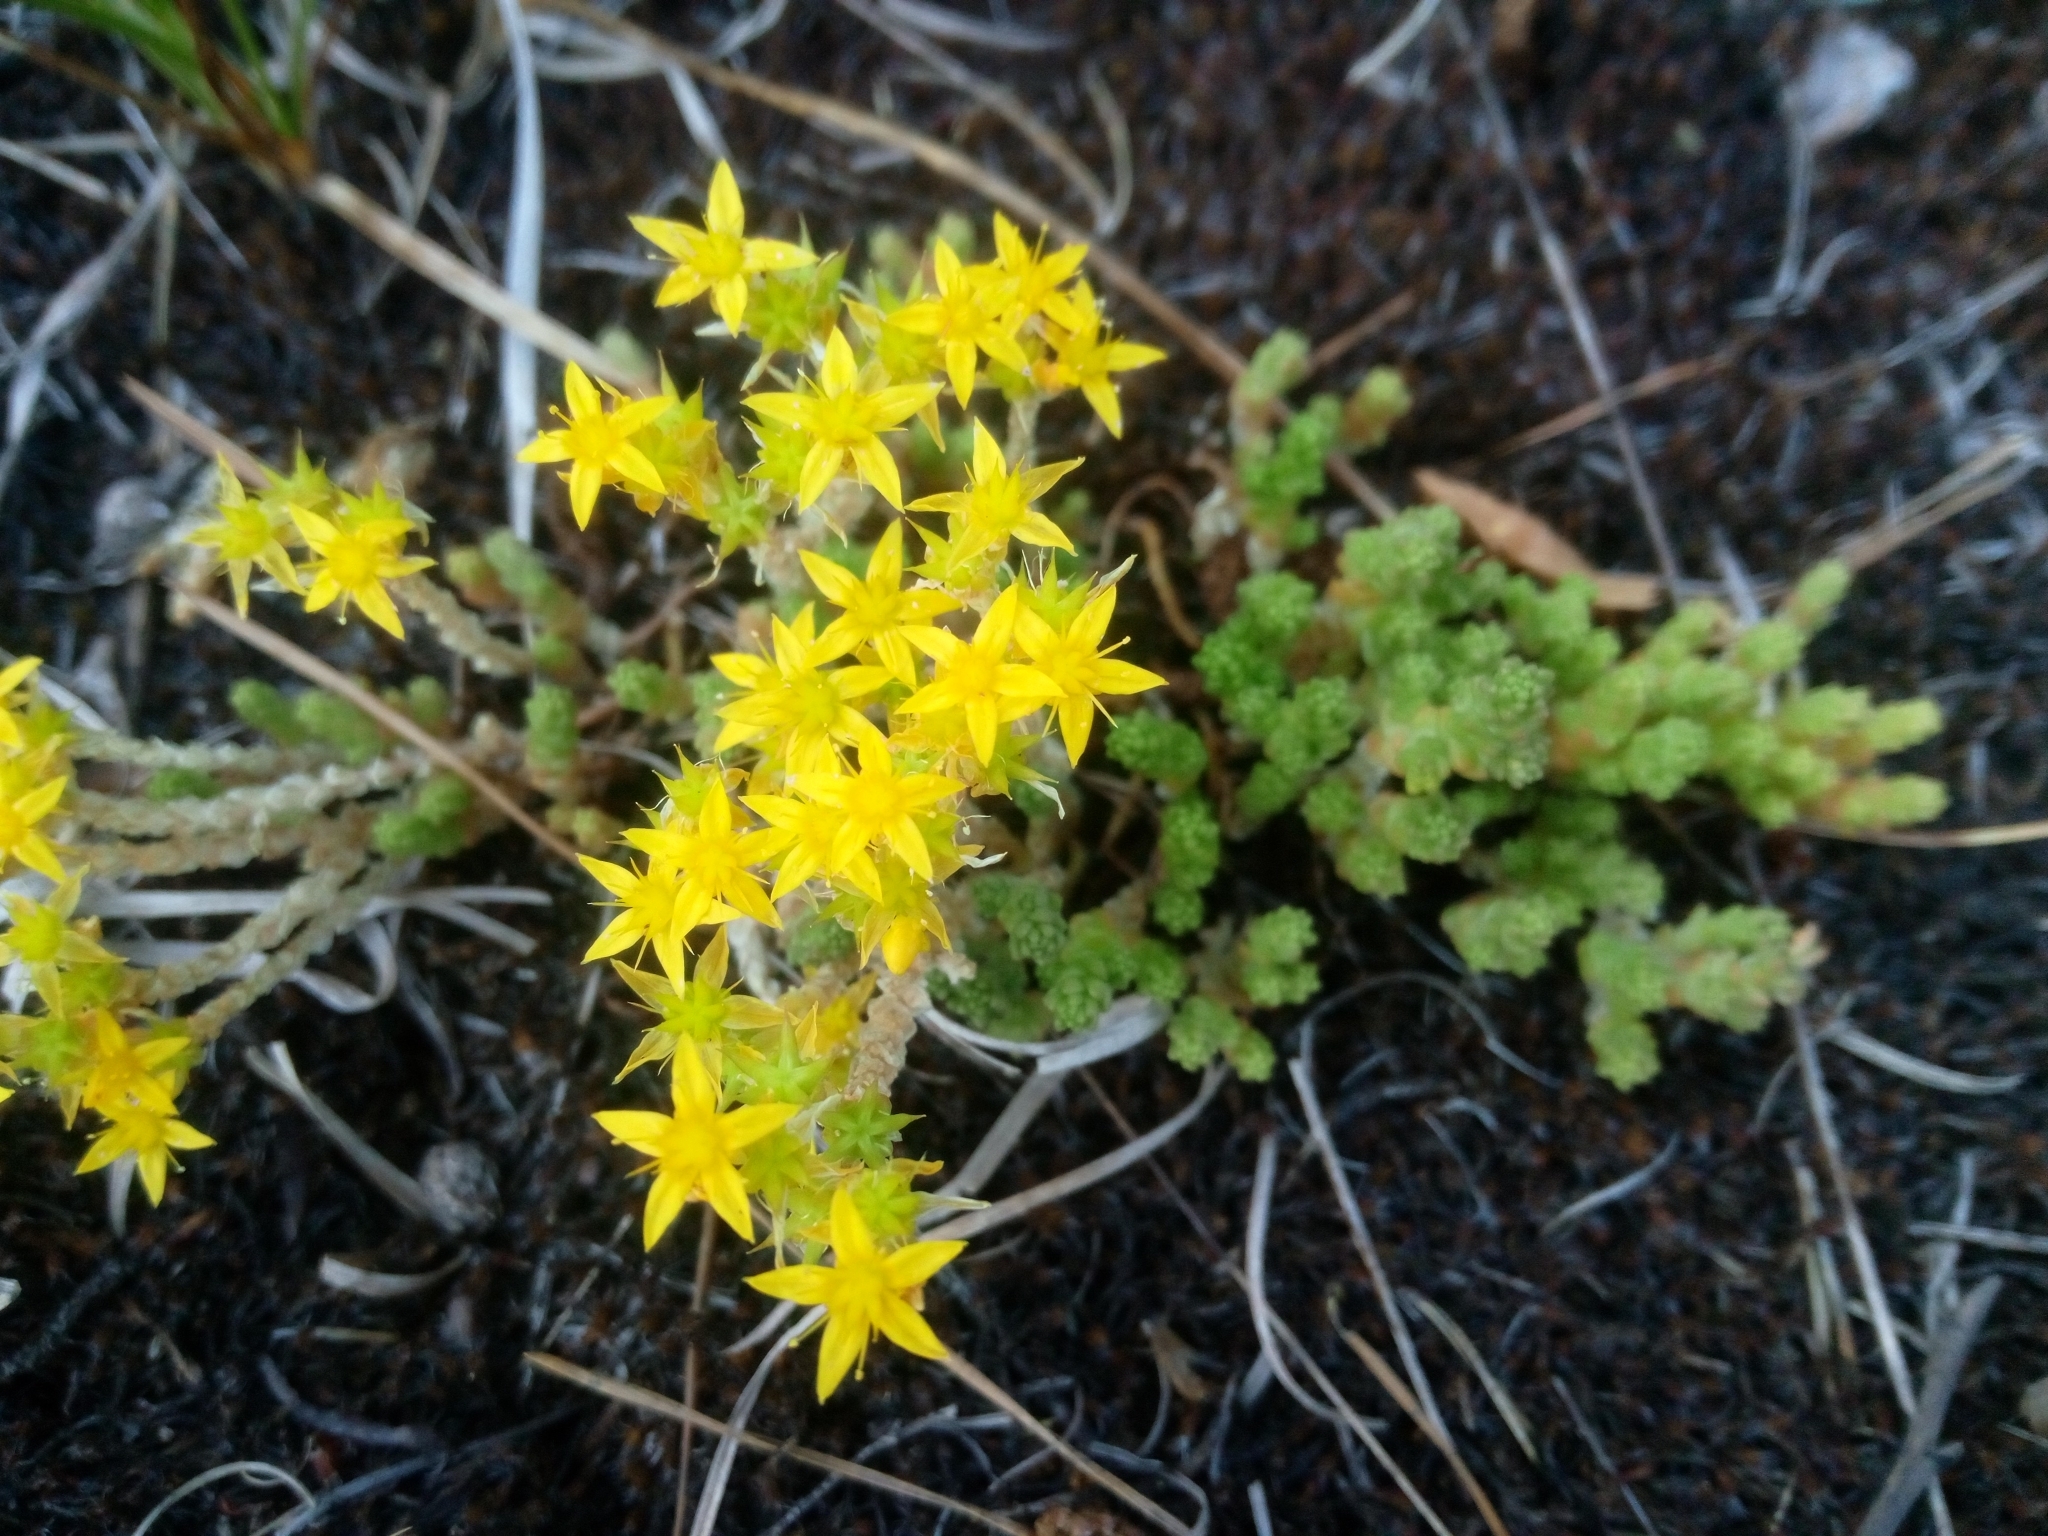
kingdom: Plantae
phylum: Tracheophyta
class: Magnoliopsida
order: Saxifragales
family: Crassulaceae
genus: Sedum
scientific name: Sedum acre
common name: Biting stonecrop
